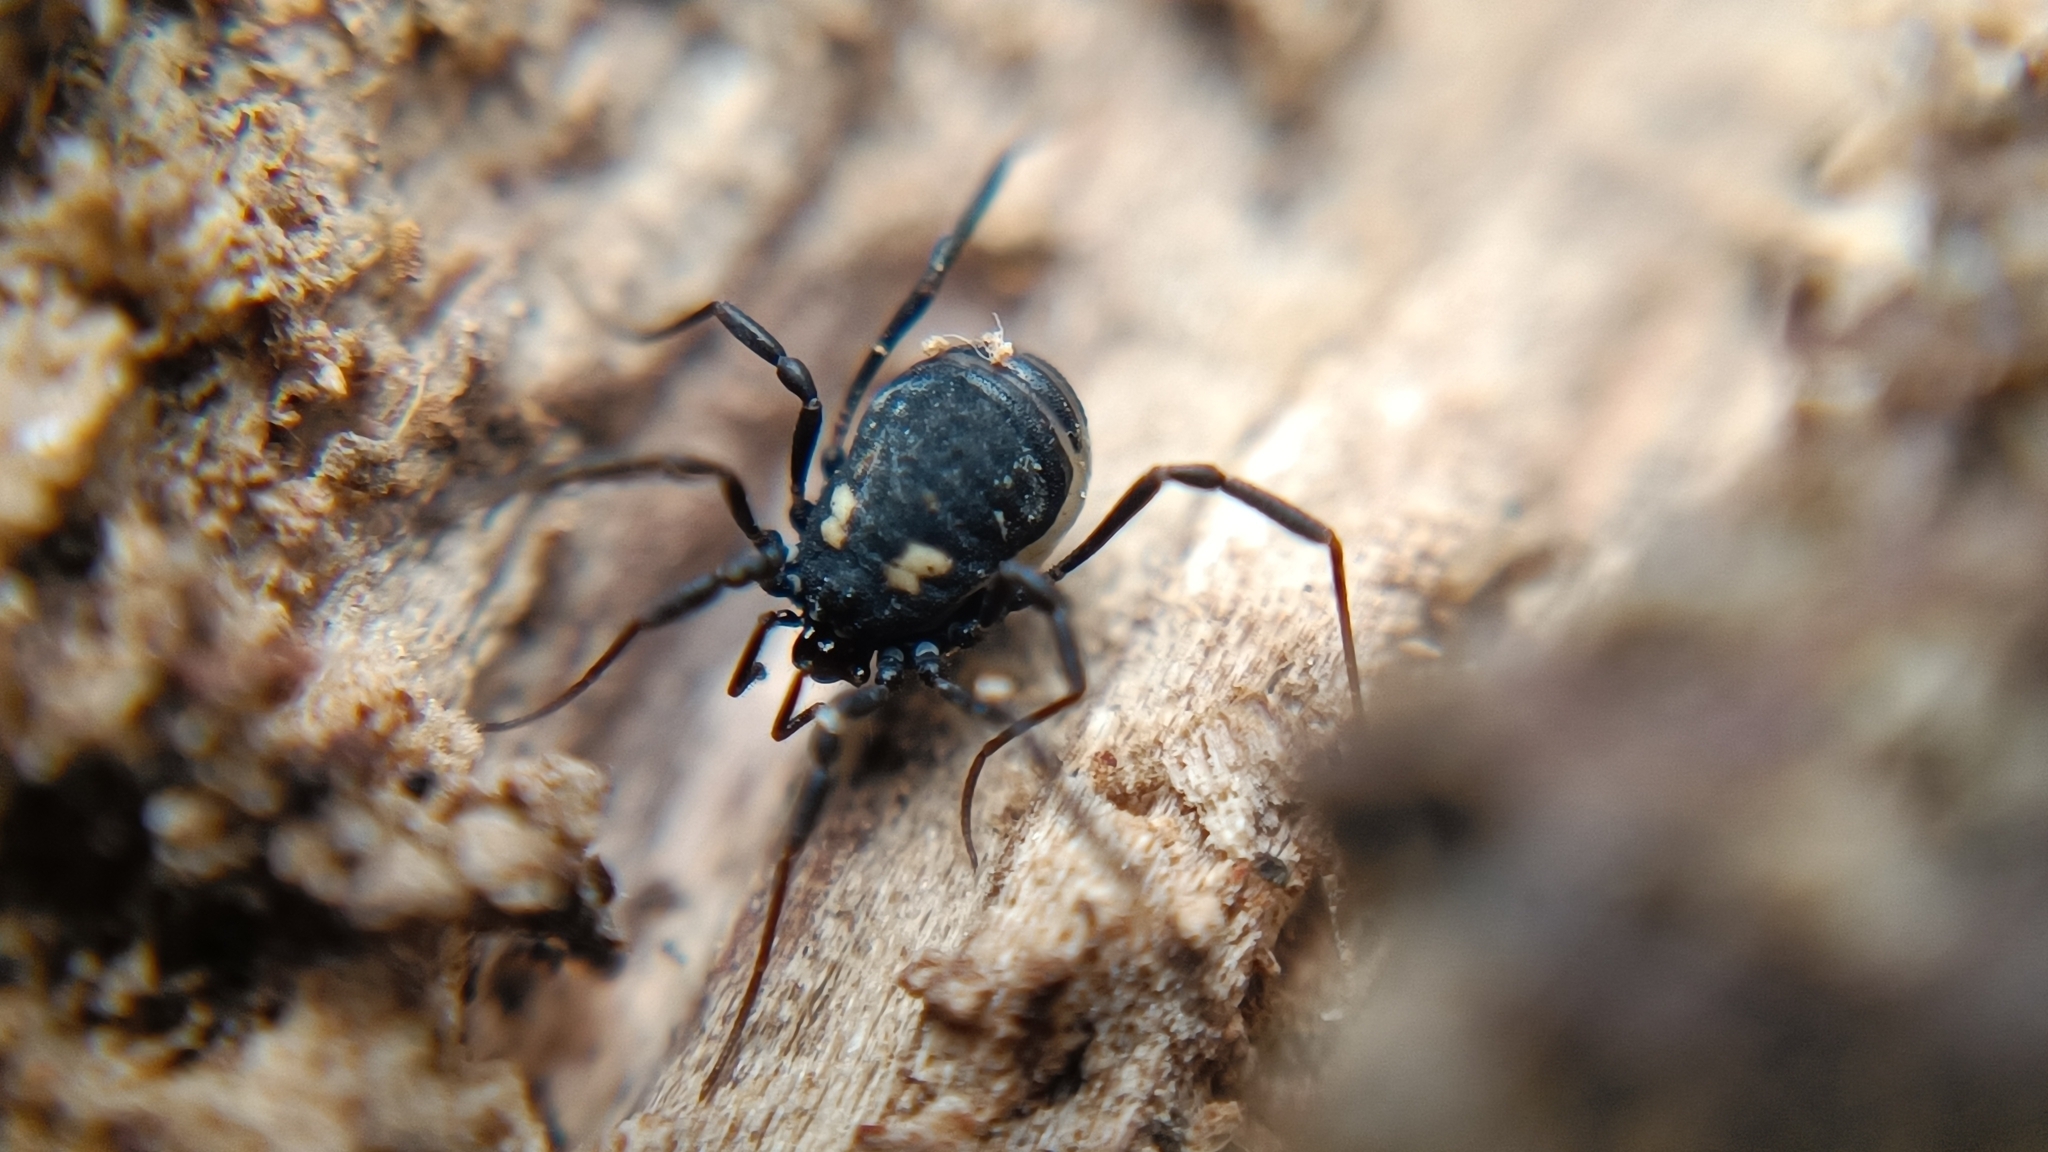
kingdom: Animalia
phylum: Arthropoda
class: Arachnida
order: Opiliones
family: Nemastomatidae
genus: Nemastoma
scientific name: Nemastoma bimaculatum
